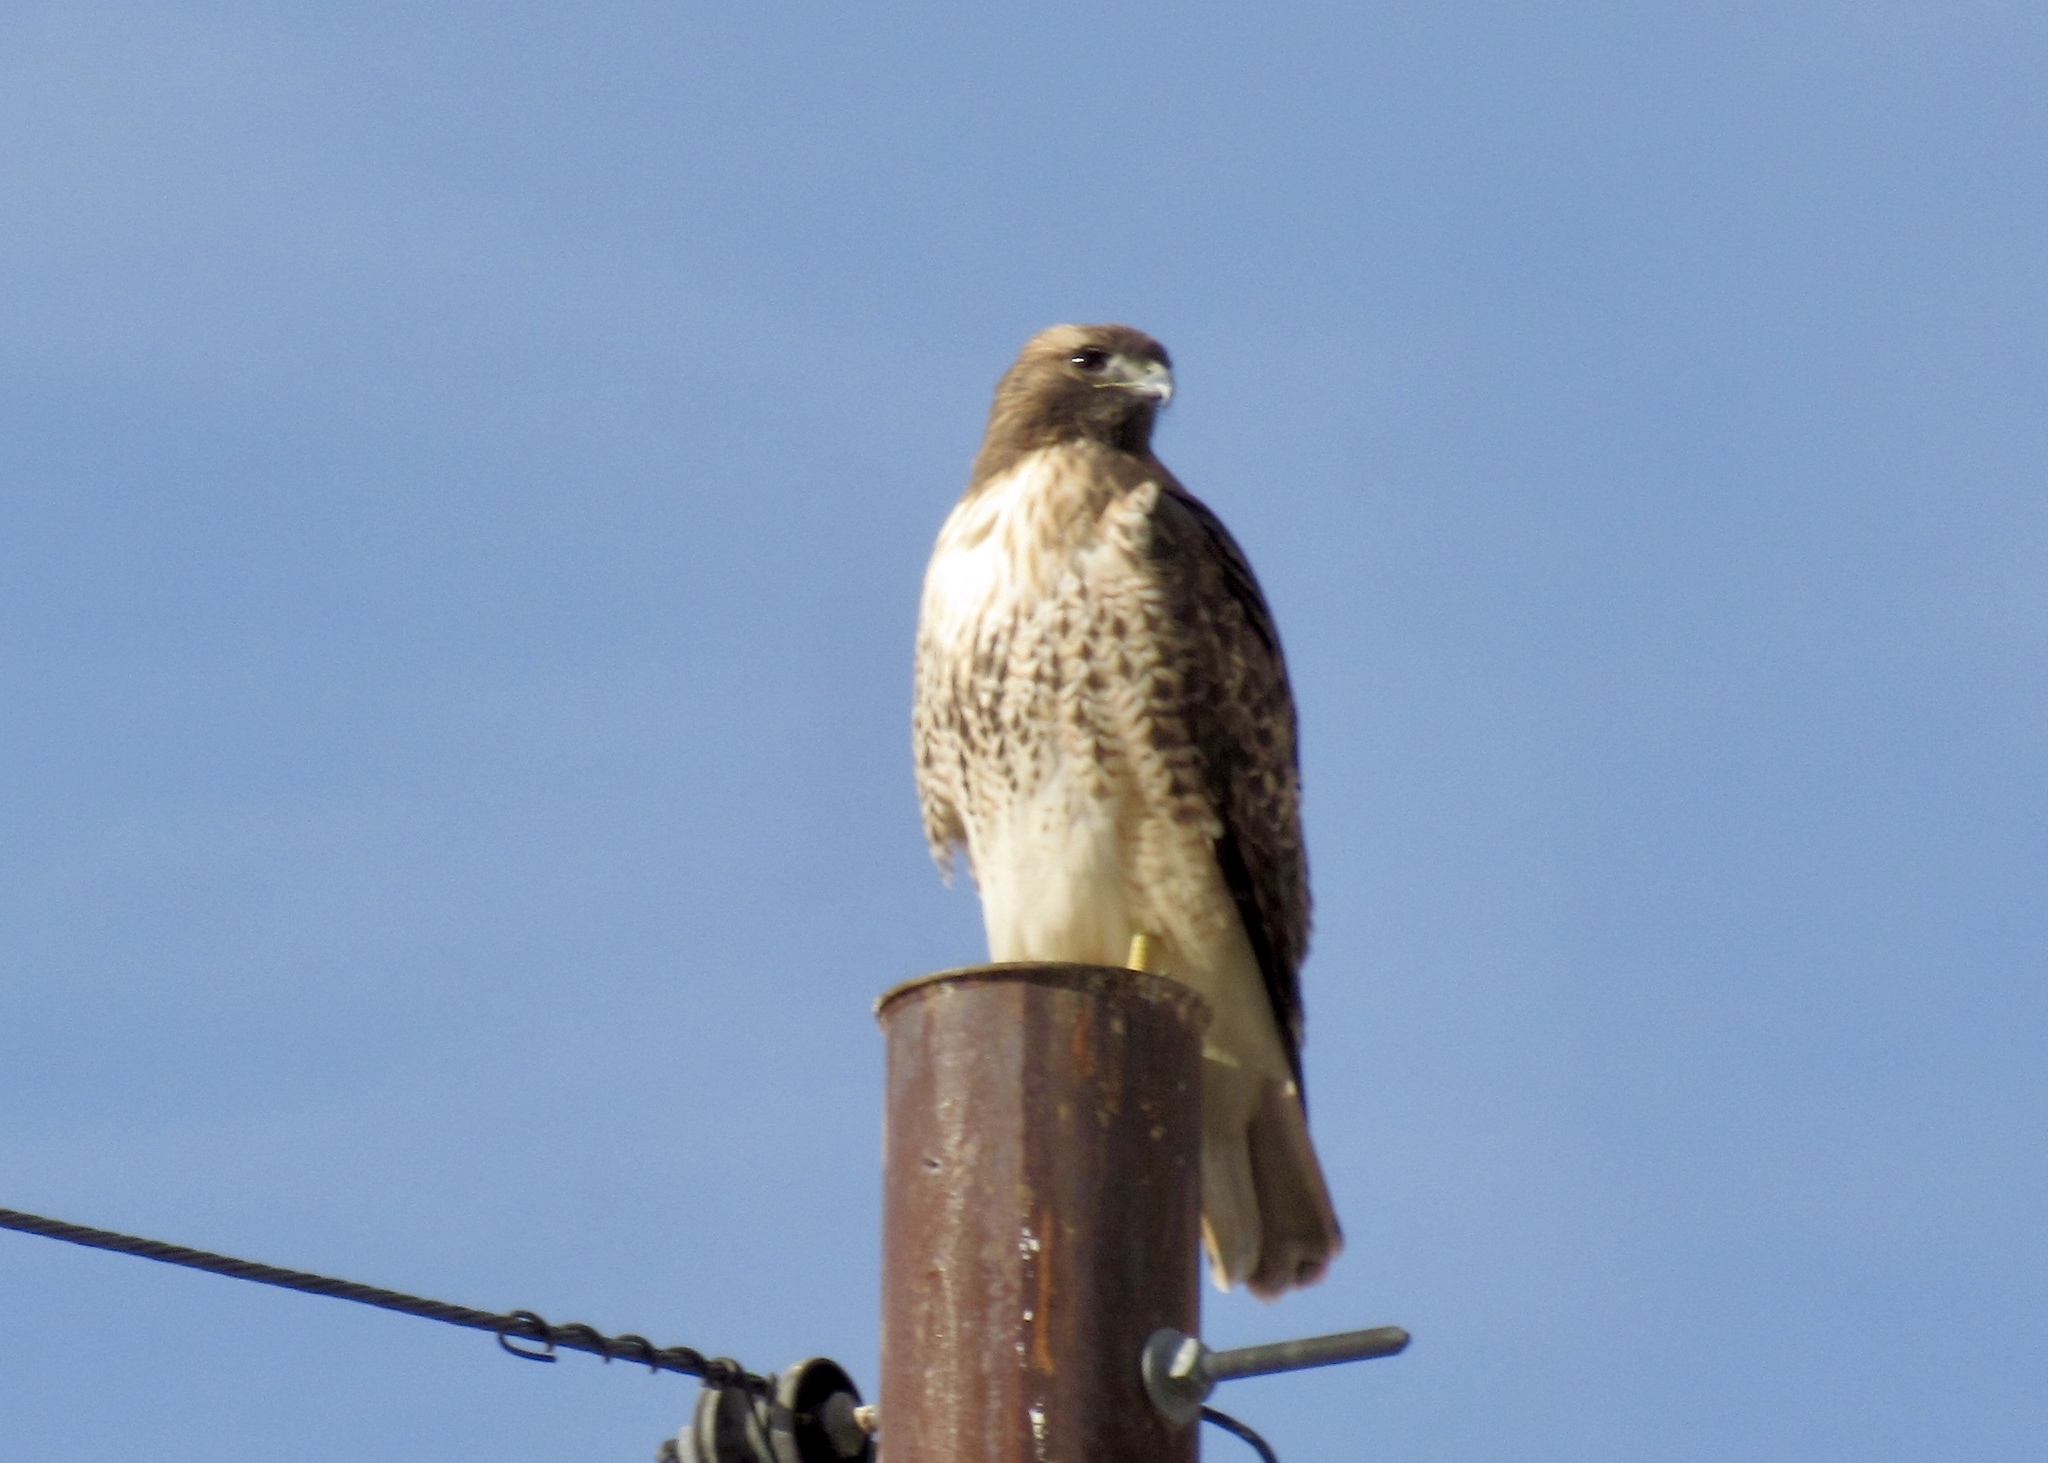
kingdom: Animalia
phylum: Chordata
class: Aves
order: Accipitriformes
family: Accipitridae
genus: Buteo
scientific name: Buteo jamaicensis
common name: Red-tailed hawk
